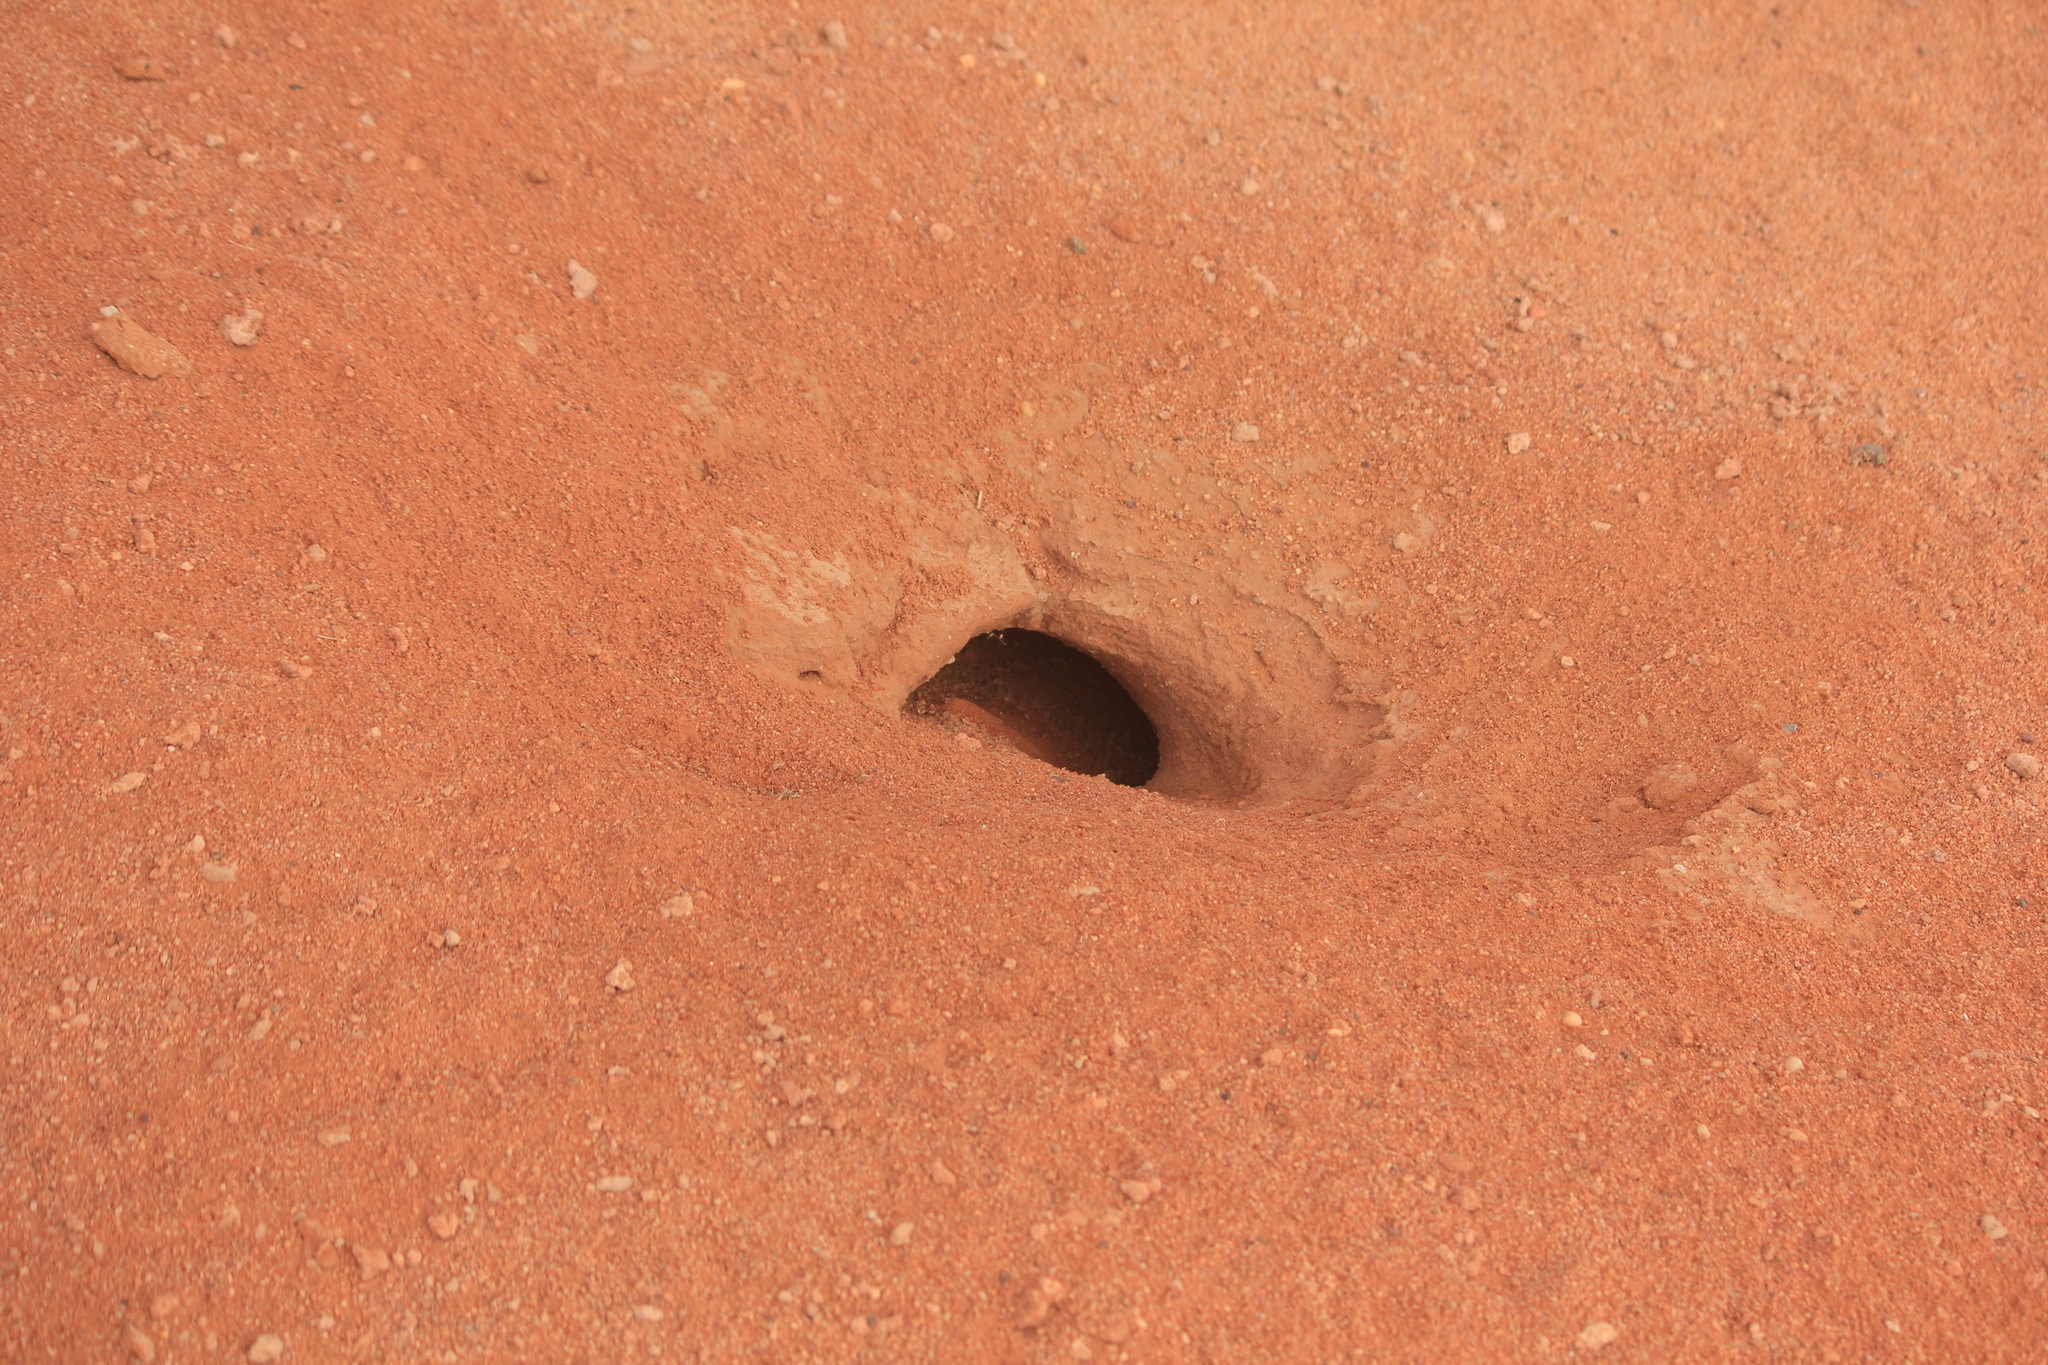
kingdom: Animalia
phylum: Chordata
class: Squamata
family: Agamidae
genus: Uromastyx
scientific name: Uromastyx aegyptia
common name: Egyptian mastigure
